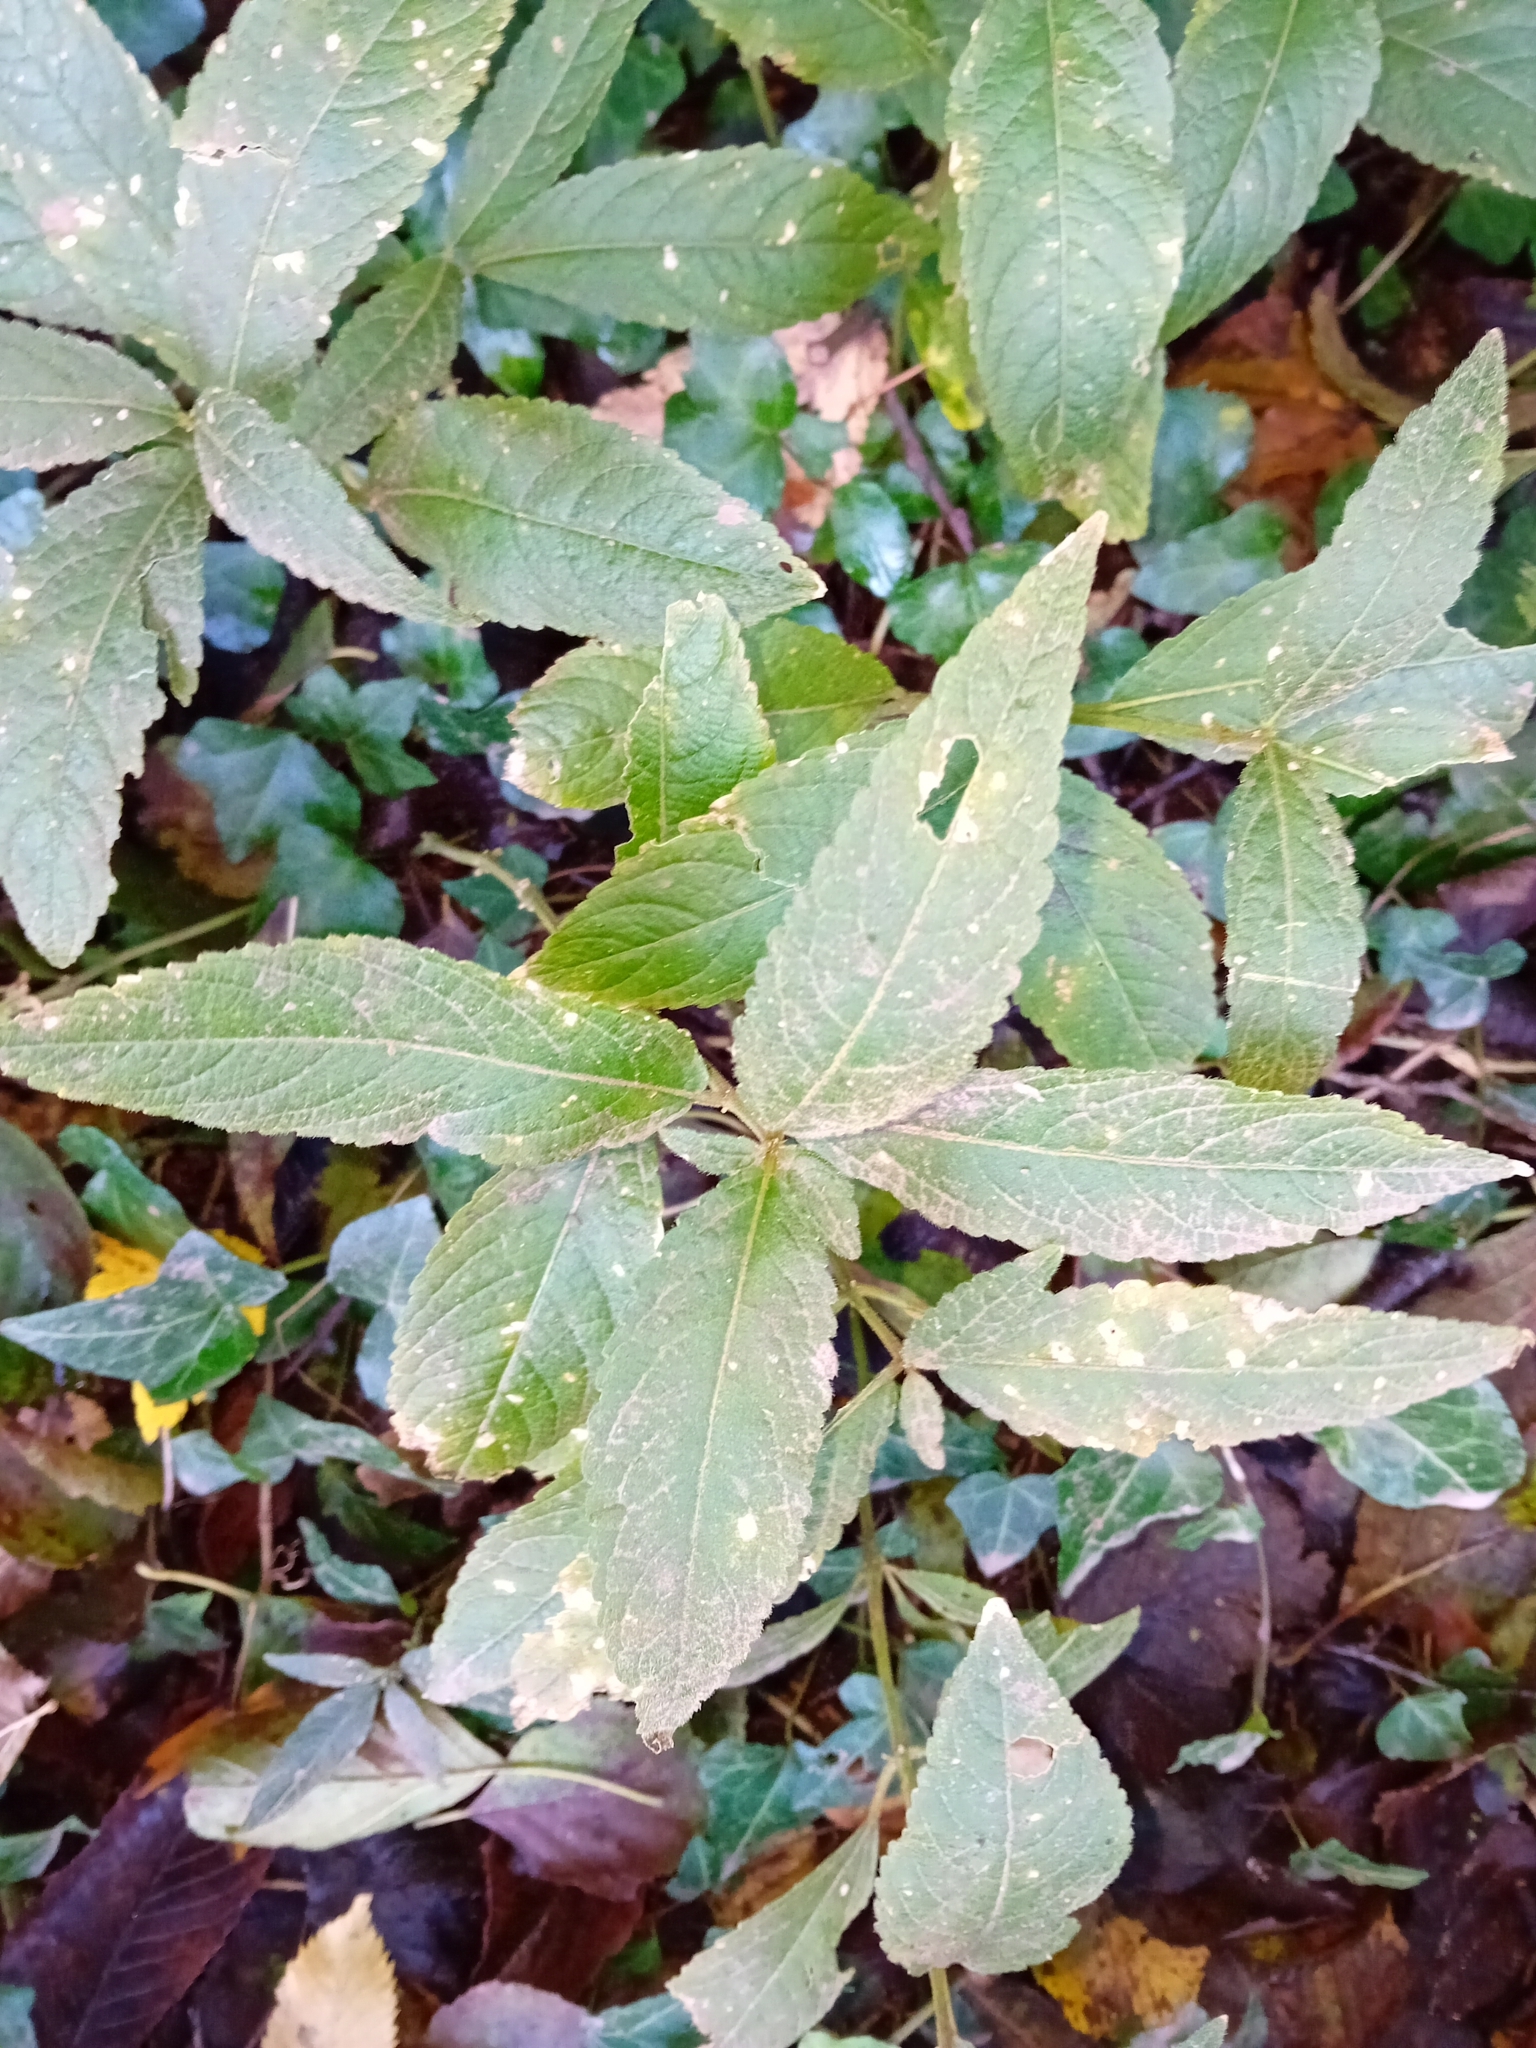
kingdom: Plantae
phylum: Tracheophyta
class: Magnoliopsida
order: Malpighiales
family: Euphorbiaceae
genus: Mercurialis
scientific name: Mercurialis perennis
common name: Dog mercury
